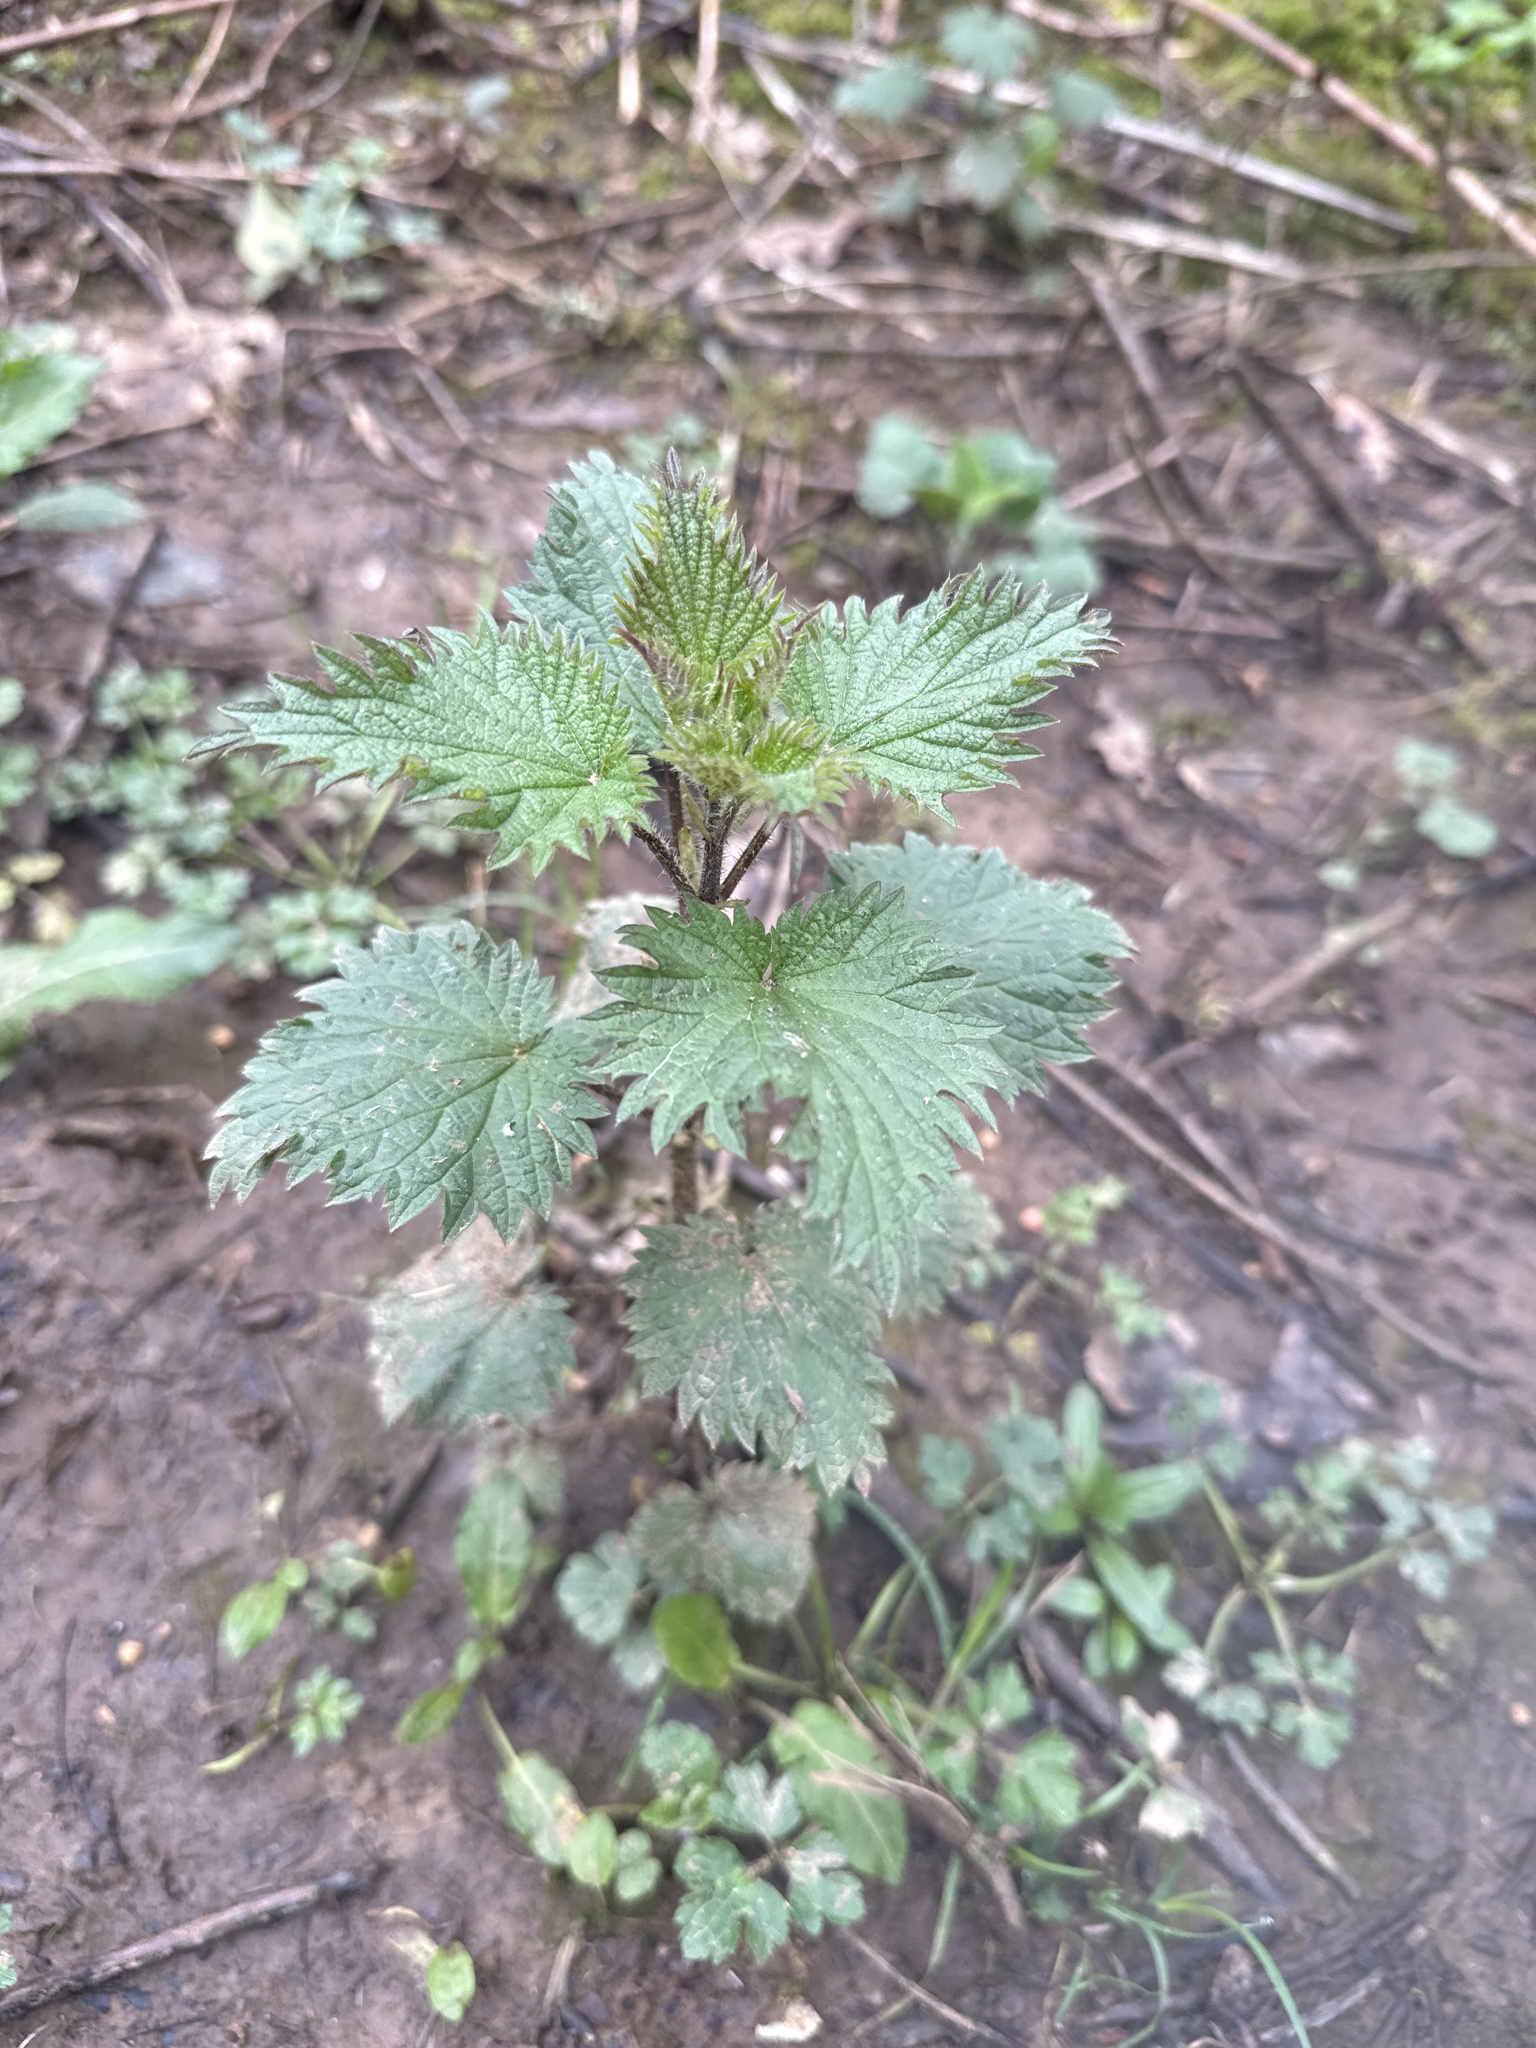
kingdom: Plantae
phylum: Tracheophyta
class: Magnoliopsida
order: Rosales
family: Urticaceae
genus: Urtica
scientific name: Urtica dioica
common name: Common nettle
